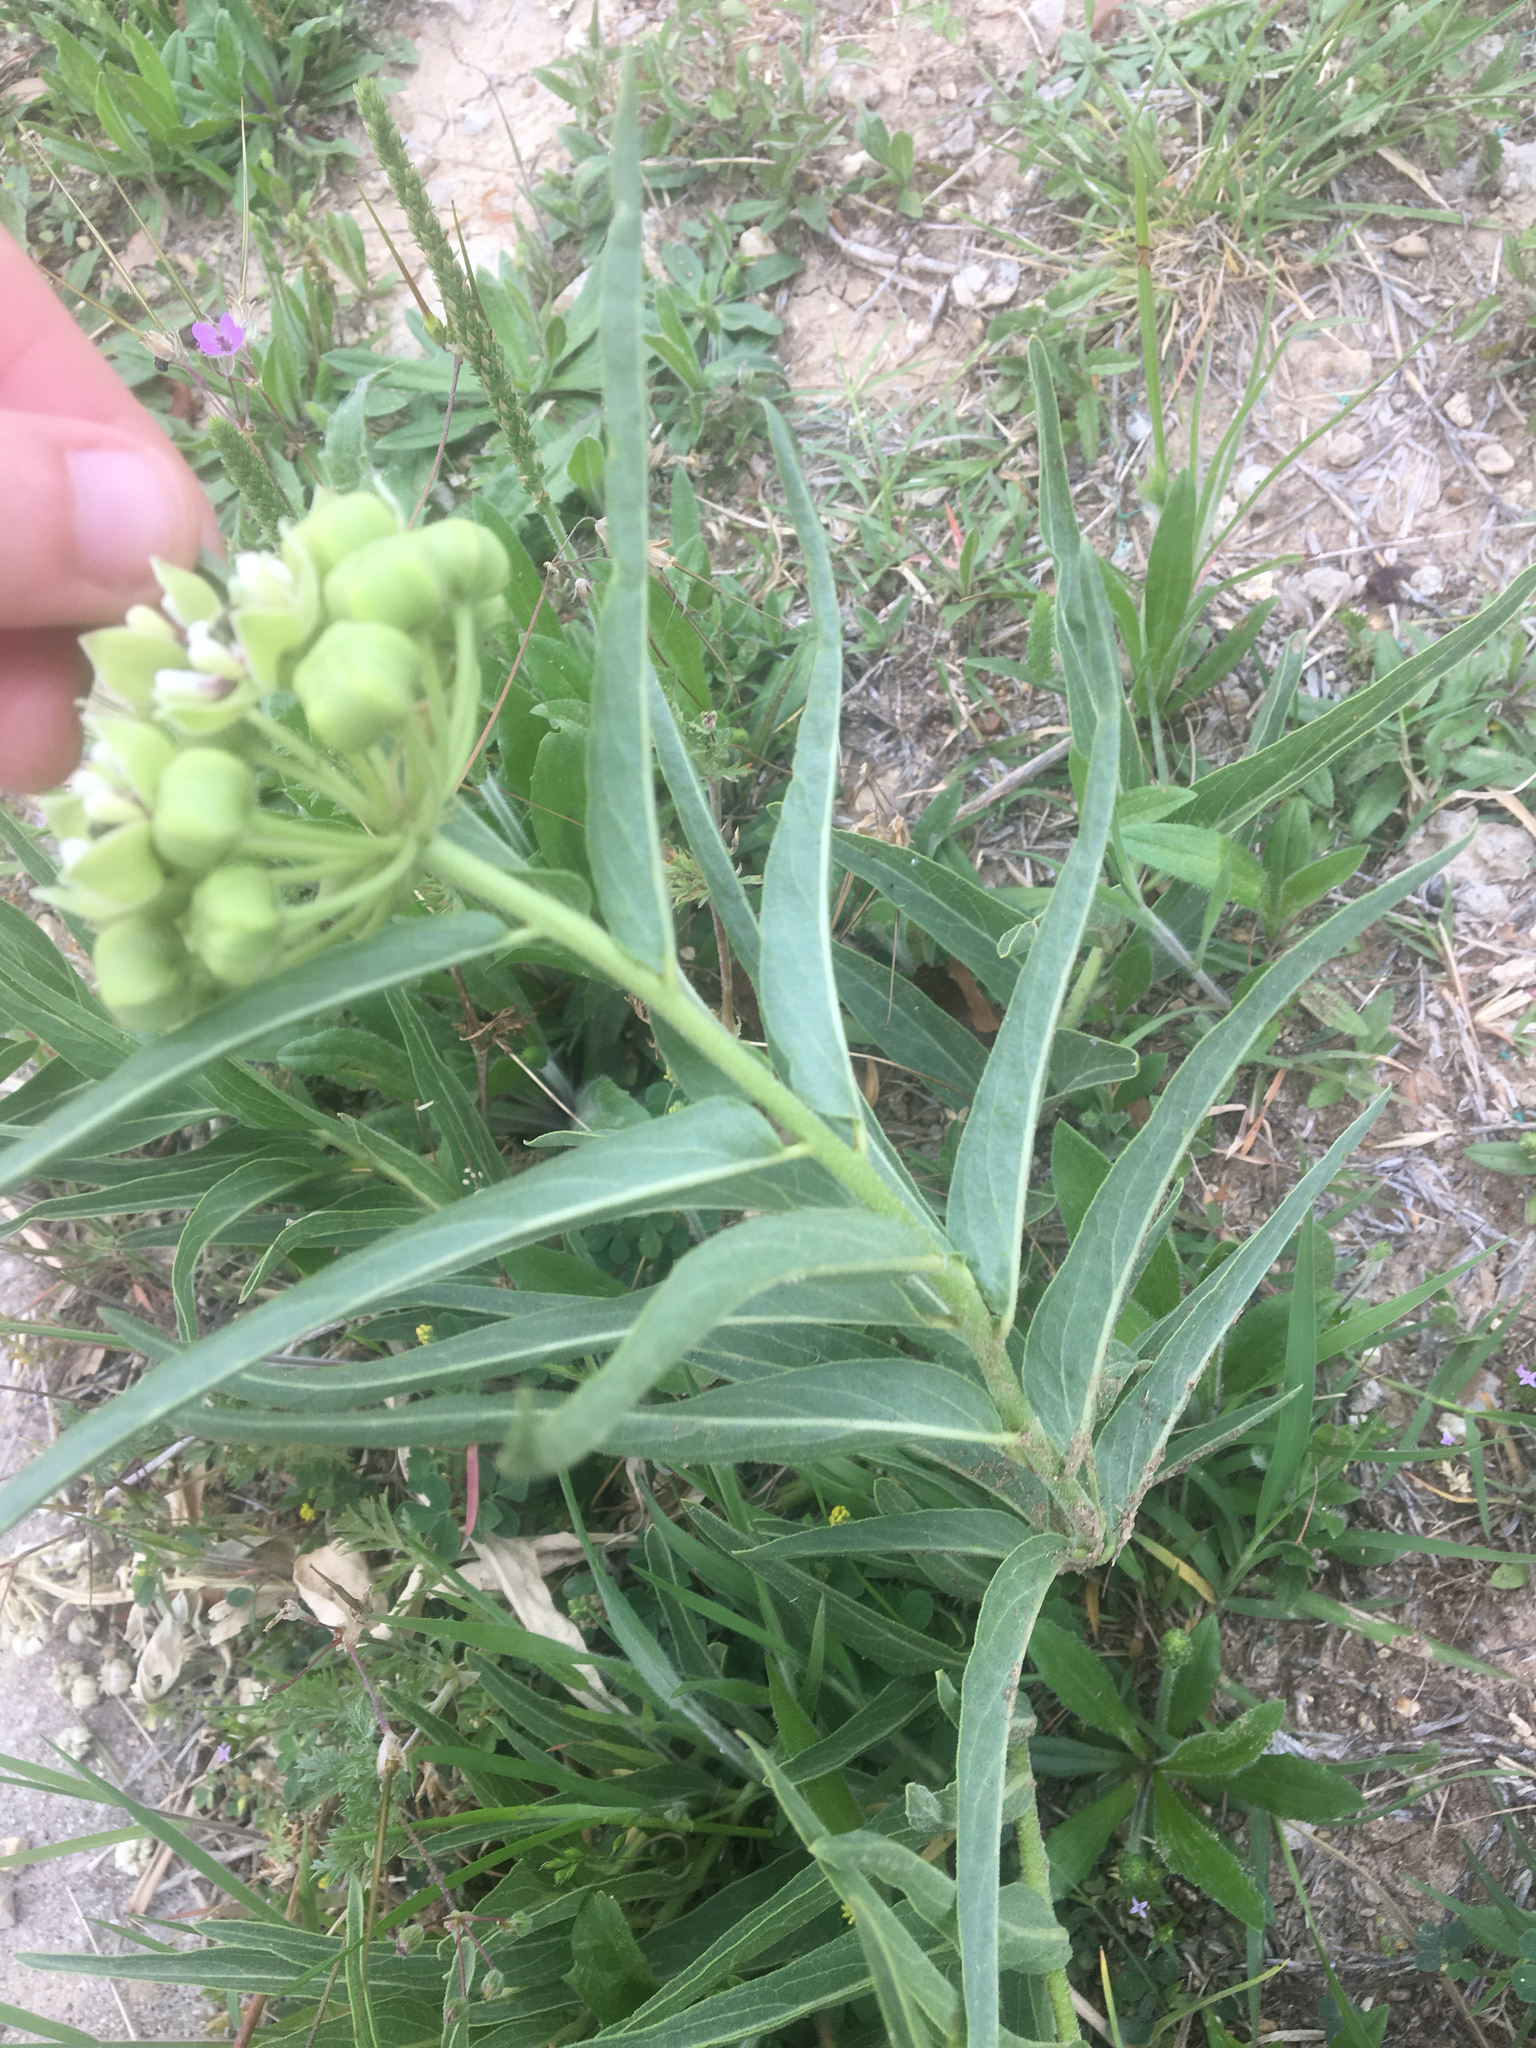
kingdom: Plantae
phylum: Tracheophyta
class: Magnoliopsida
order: Gentianales
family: Apocynaceae
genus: Asclepias
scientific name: Asclepias asperula
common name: Antelope horns
